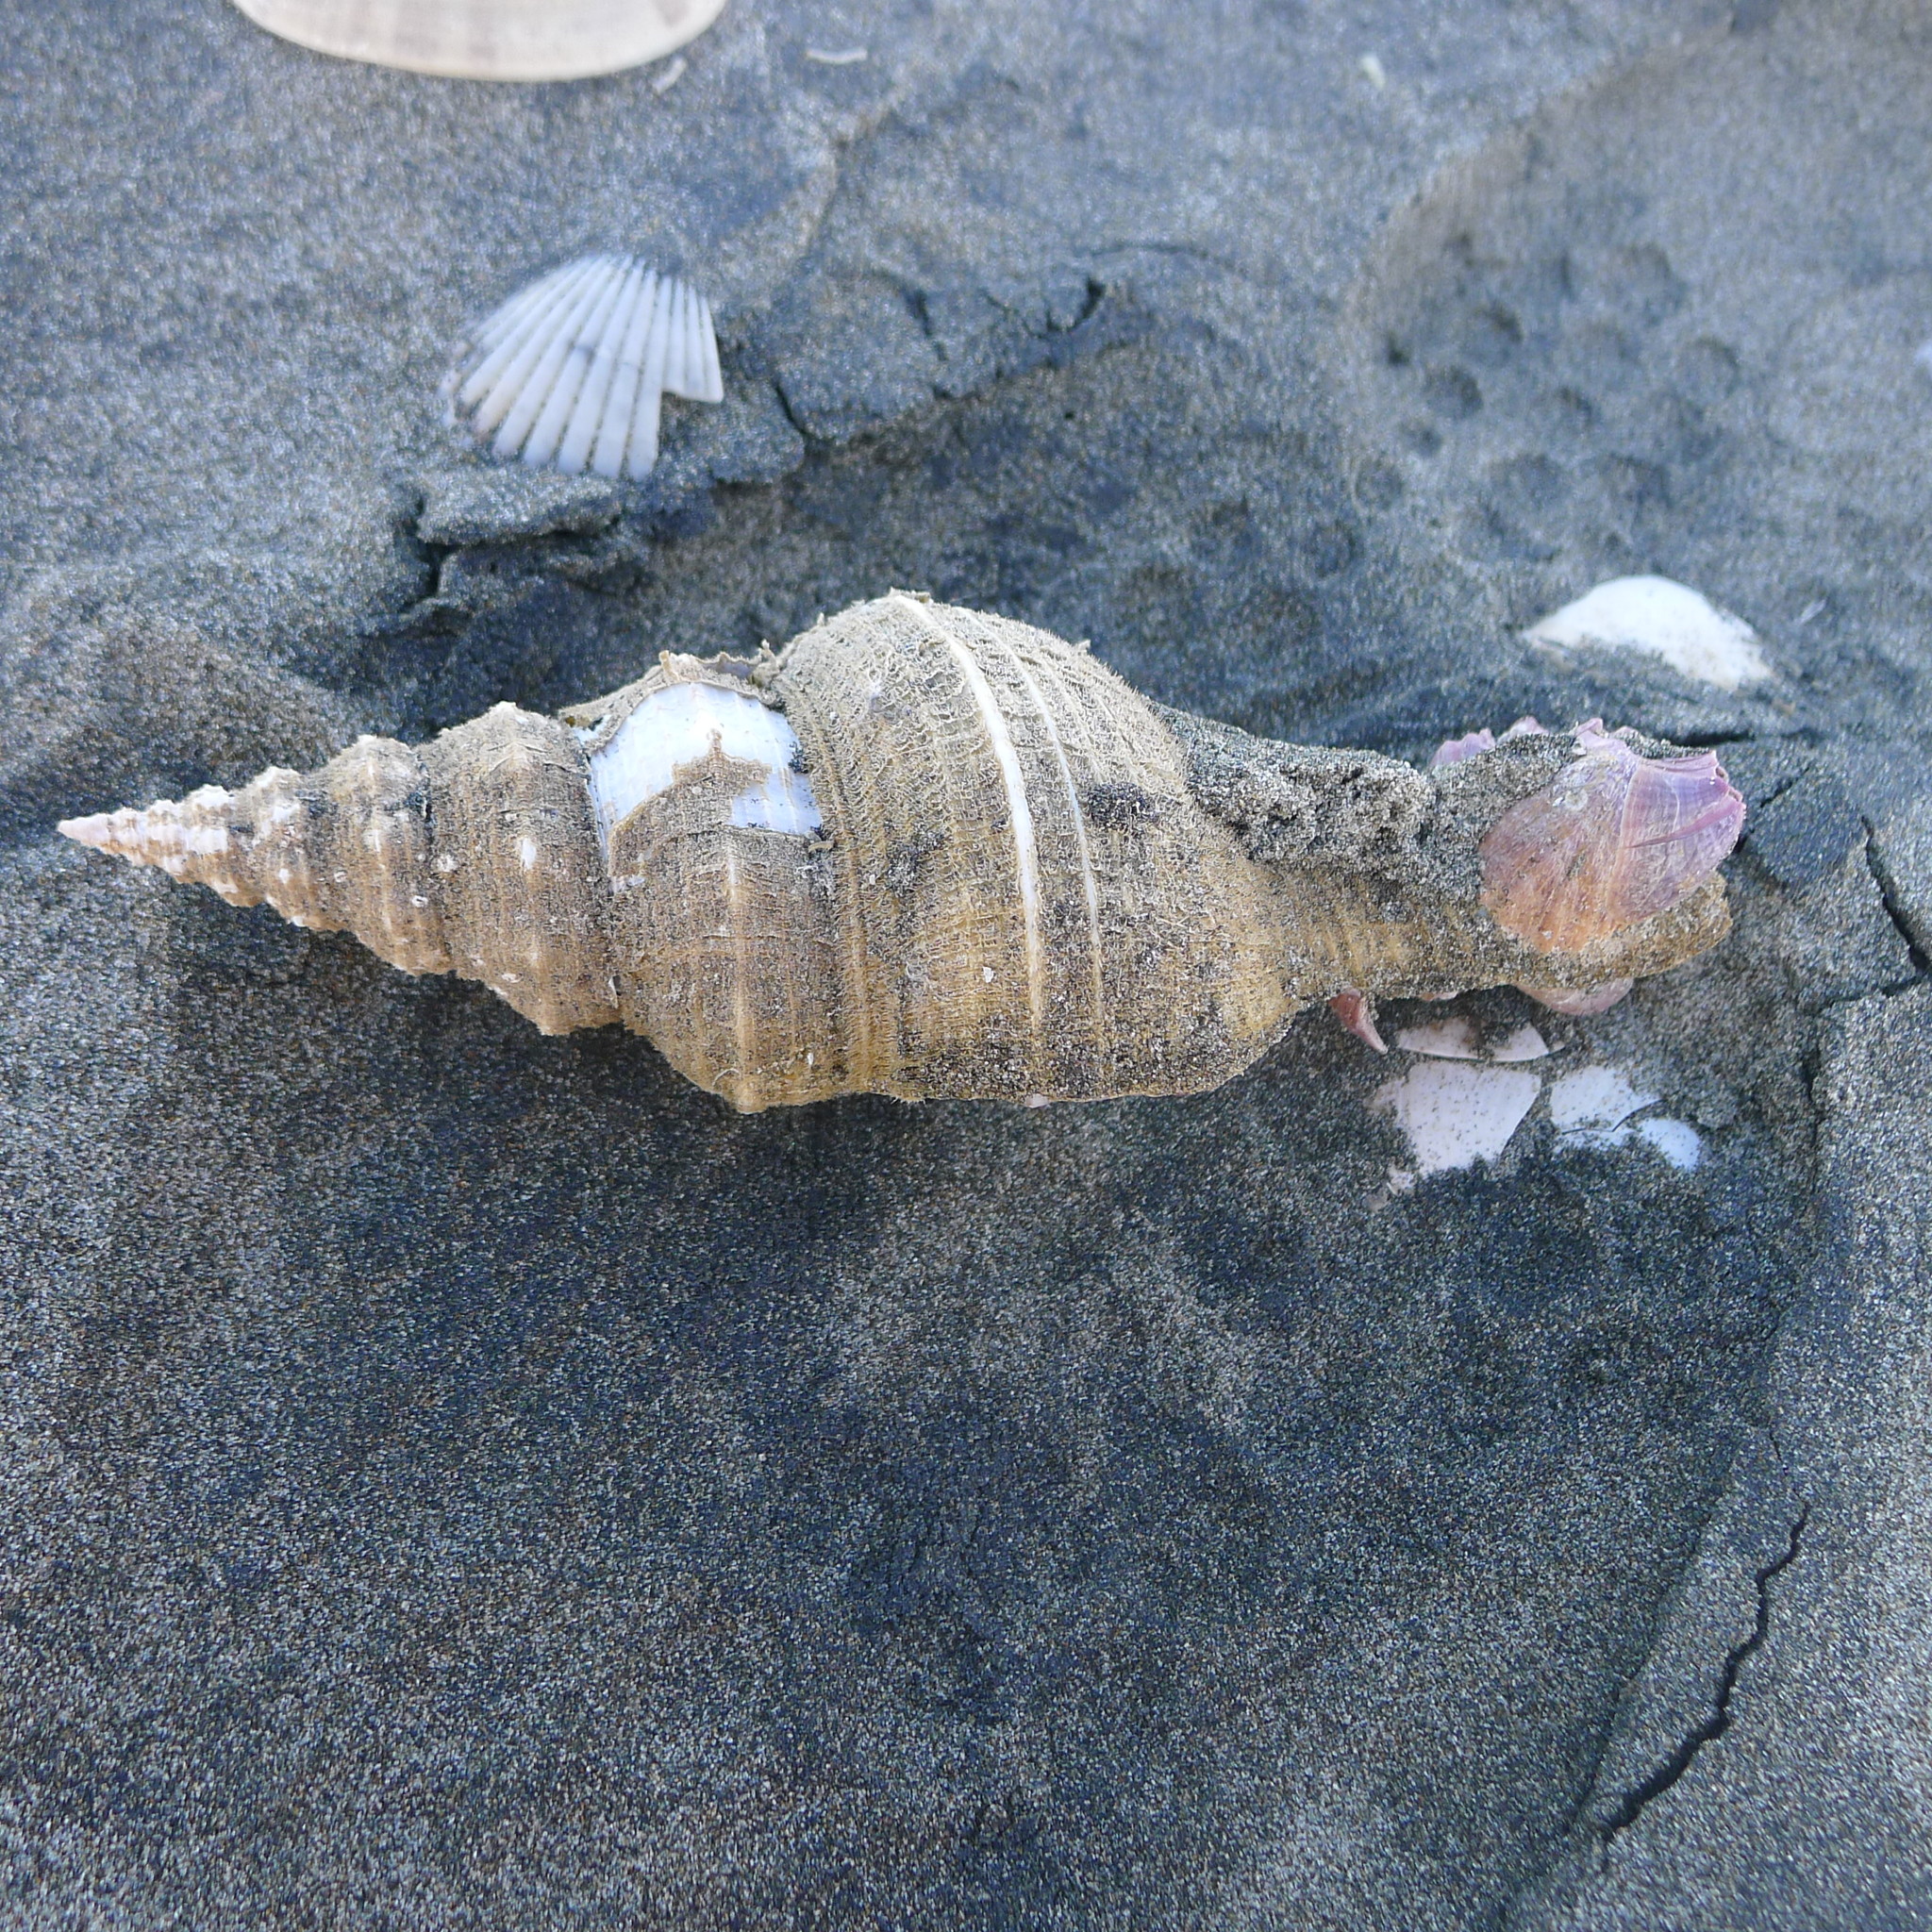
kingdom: Animalia
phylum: Mollusca
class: Gastropoda
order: Neogastropoda
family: Fasciolariidae
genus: Goniofusus
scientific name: Goniofusus dupetitthouarsi
